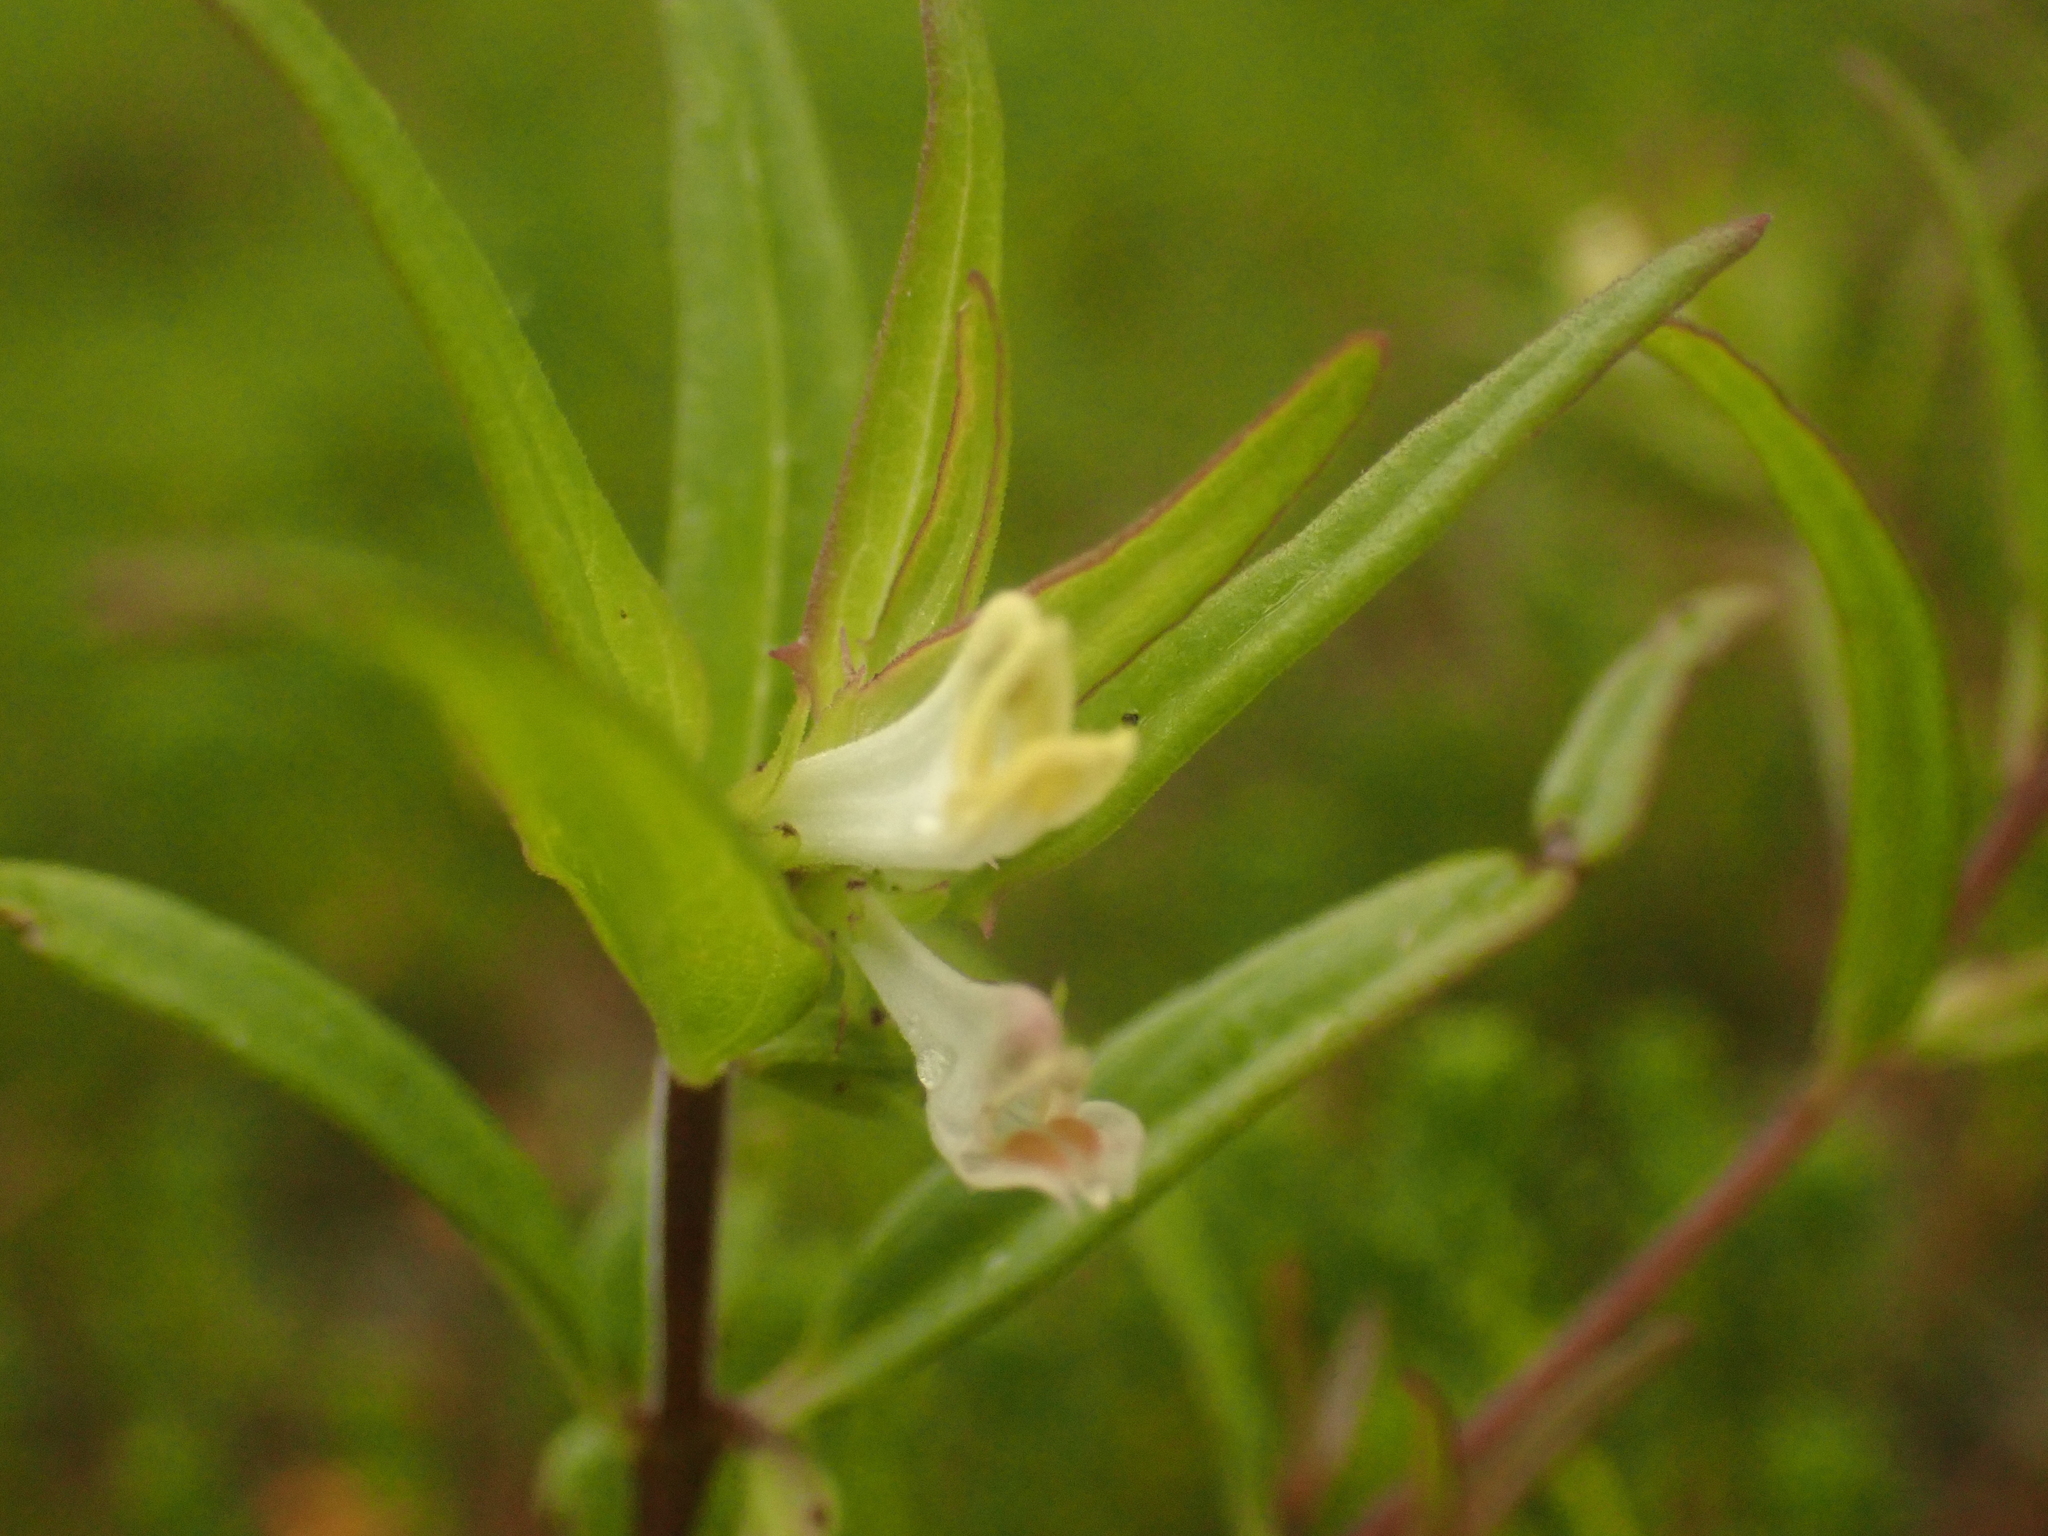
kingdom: Plantae
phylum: Tracheophyta
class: Magnoliopsida
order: Lamiales
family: Orobanchaceae
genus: Melampyrum
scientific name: Melampyrum lineare
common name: American cow-wheat
